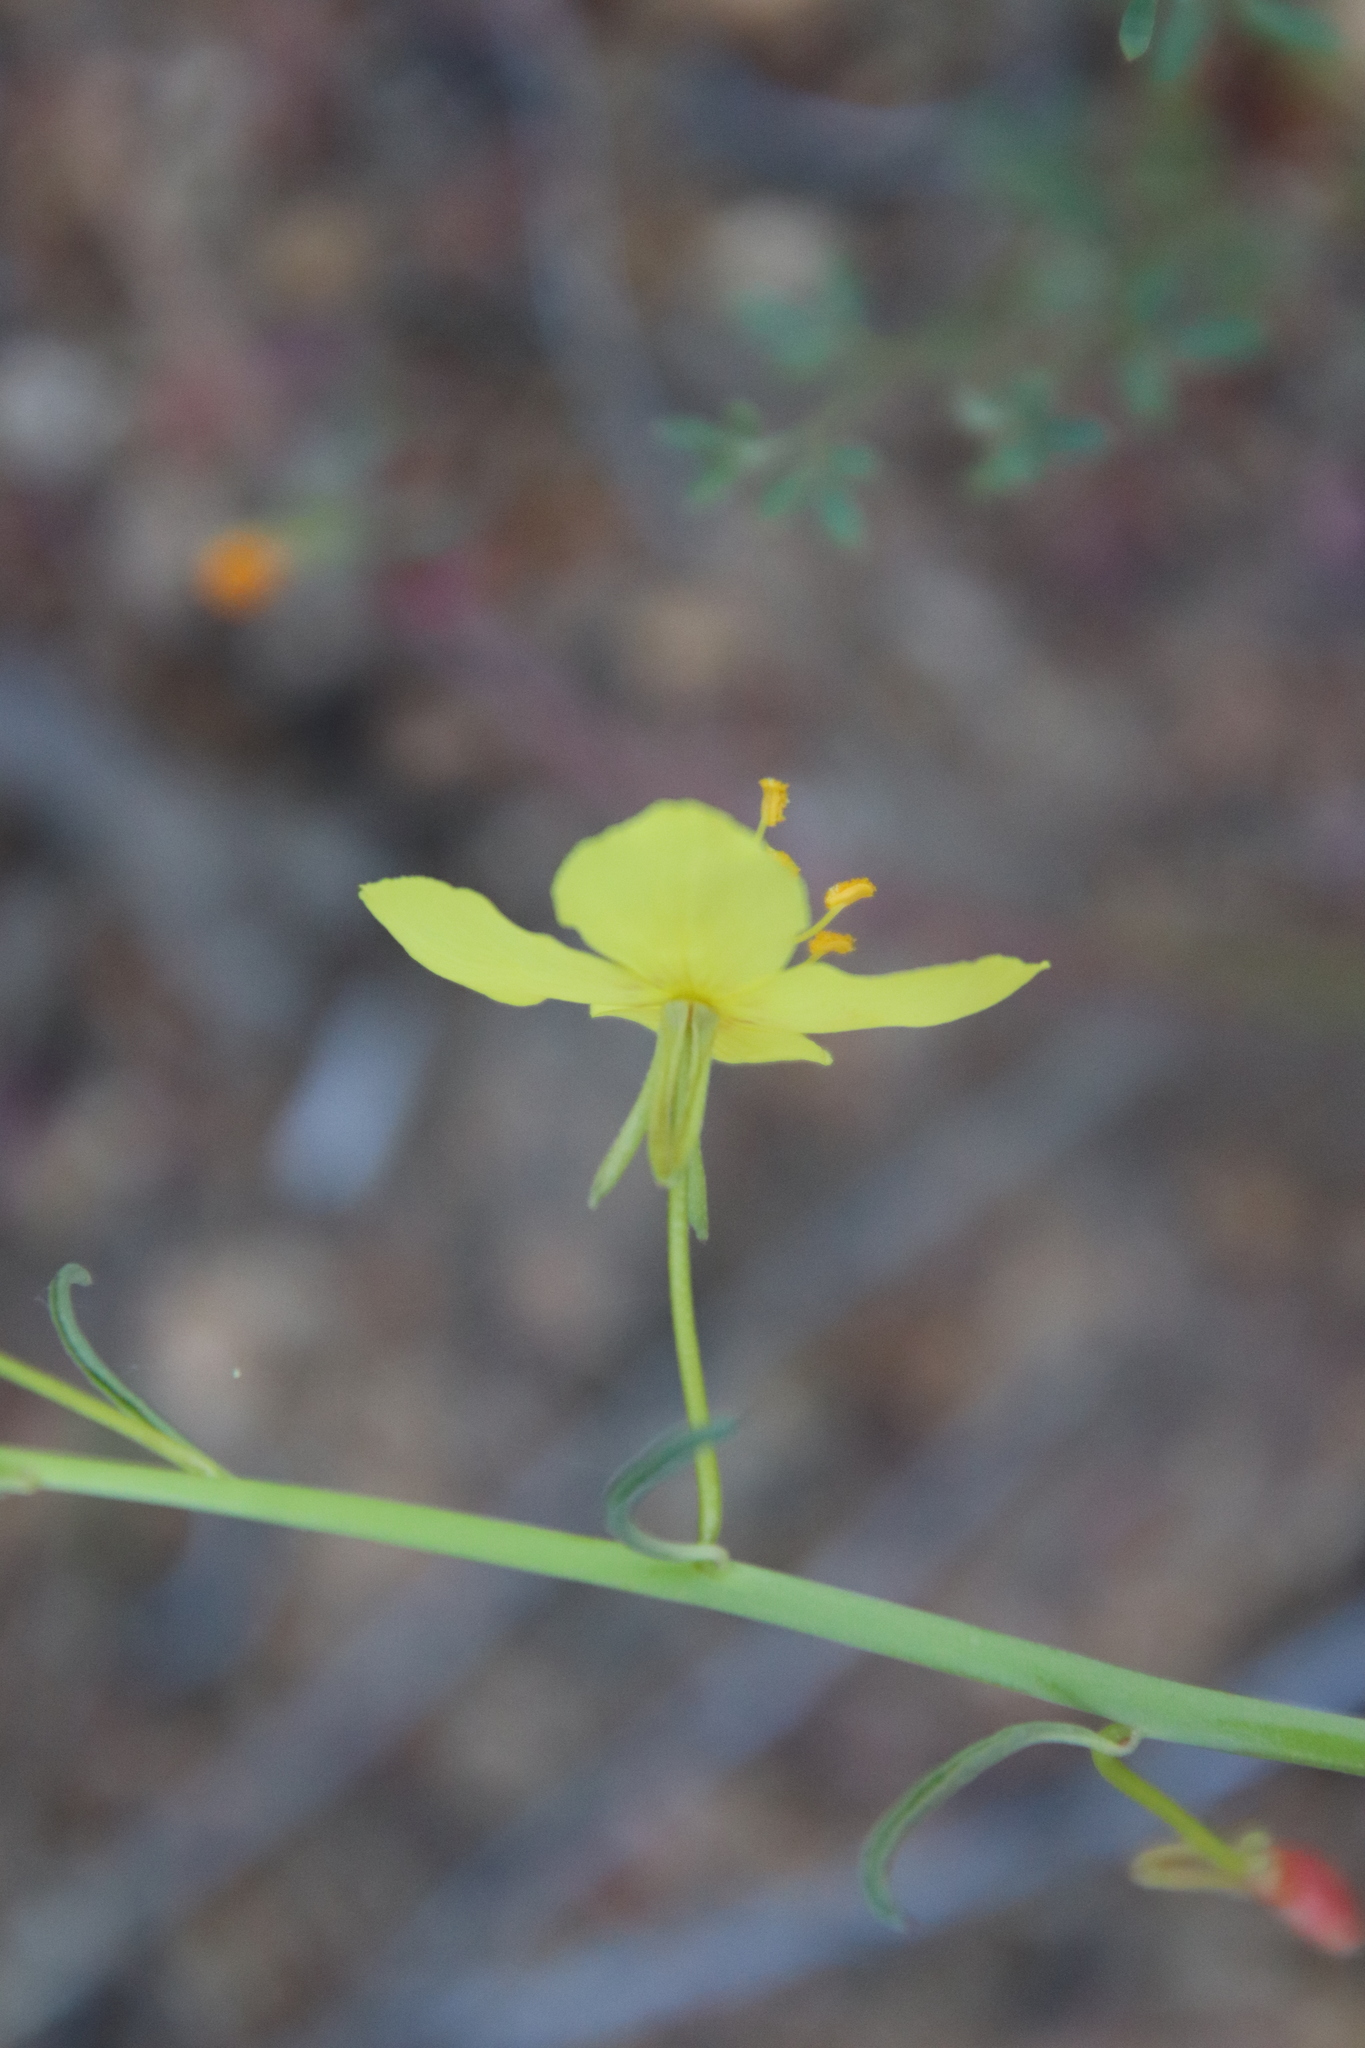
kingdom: Plantae
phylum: Tracheophyta
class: Magnoliopsida
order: Myrtales
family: Onagraceae
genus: Eulobus
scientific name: Eulobus californicus
